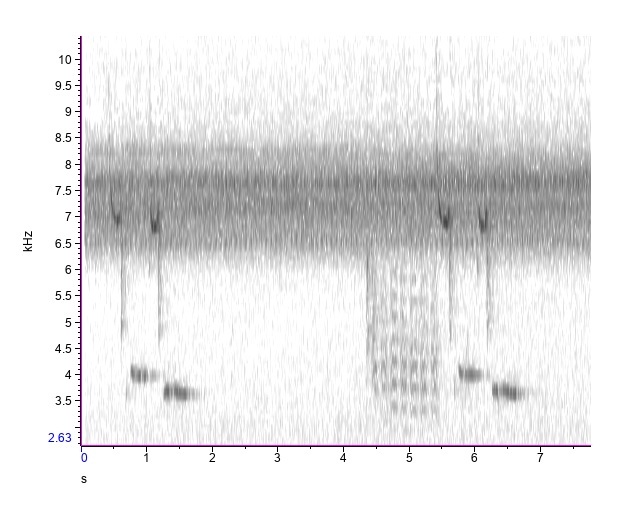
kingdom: Animalia
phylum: Chordata
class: Aves
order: Passeriformes
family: Paridae
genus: Poecile
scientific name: Poecile carolinensis
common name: Carolina chickadee
